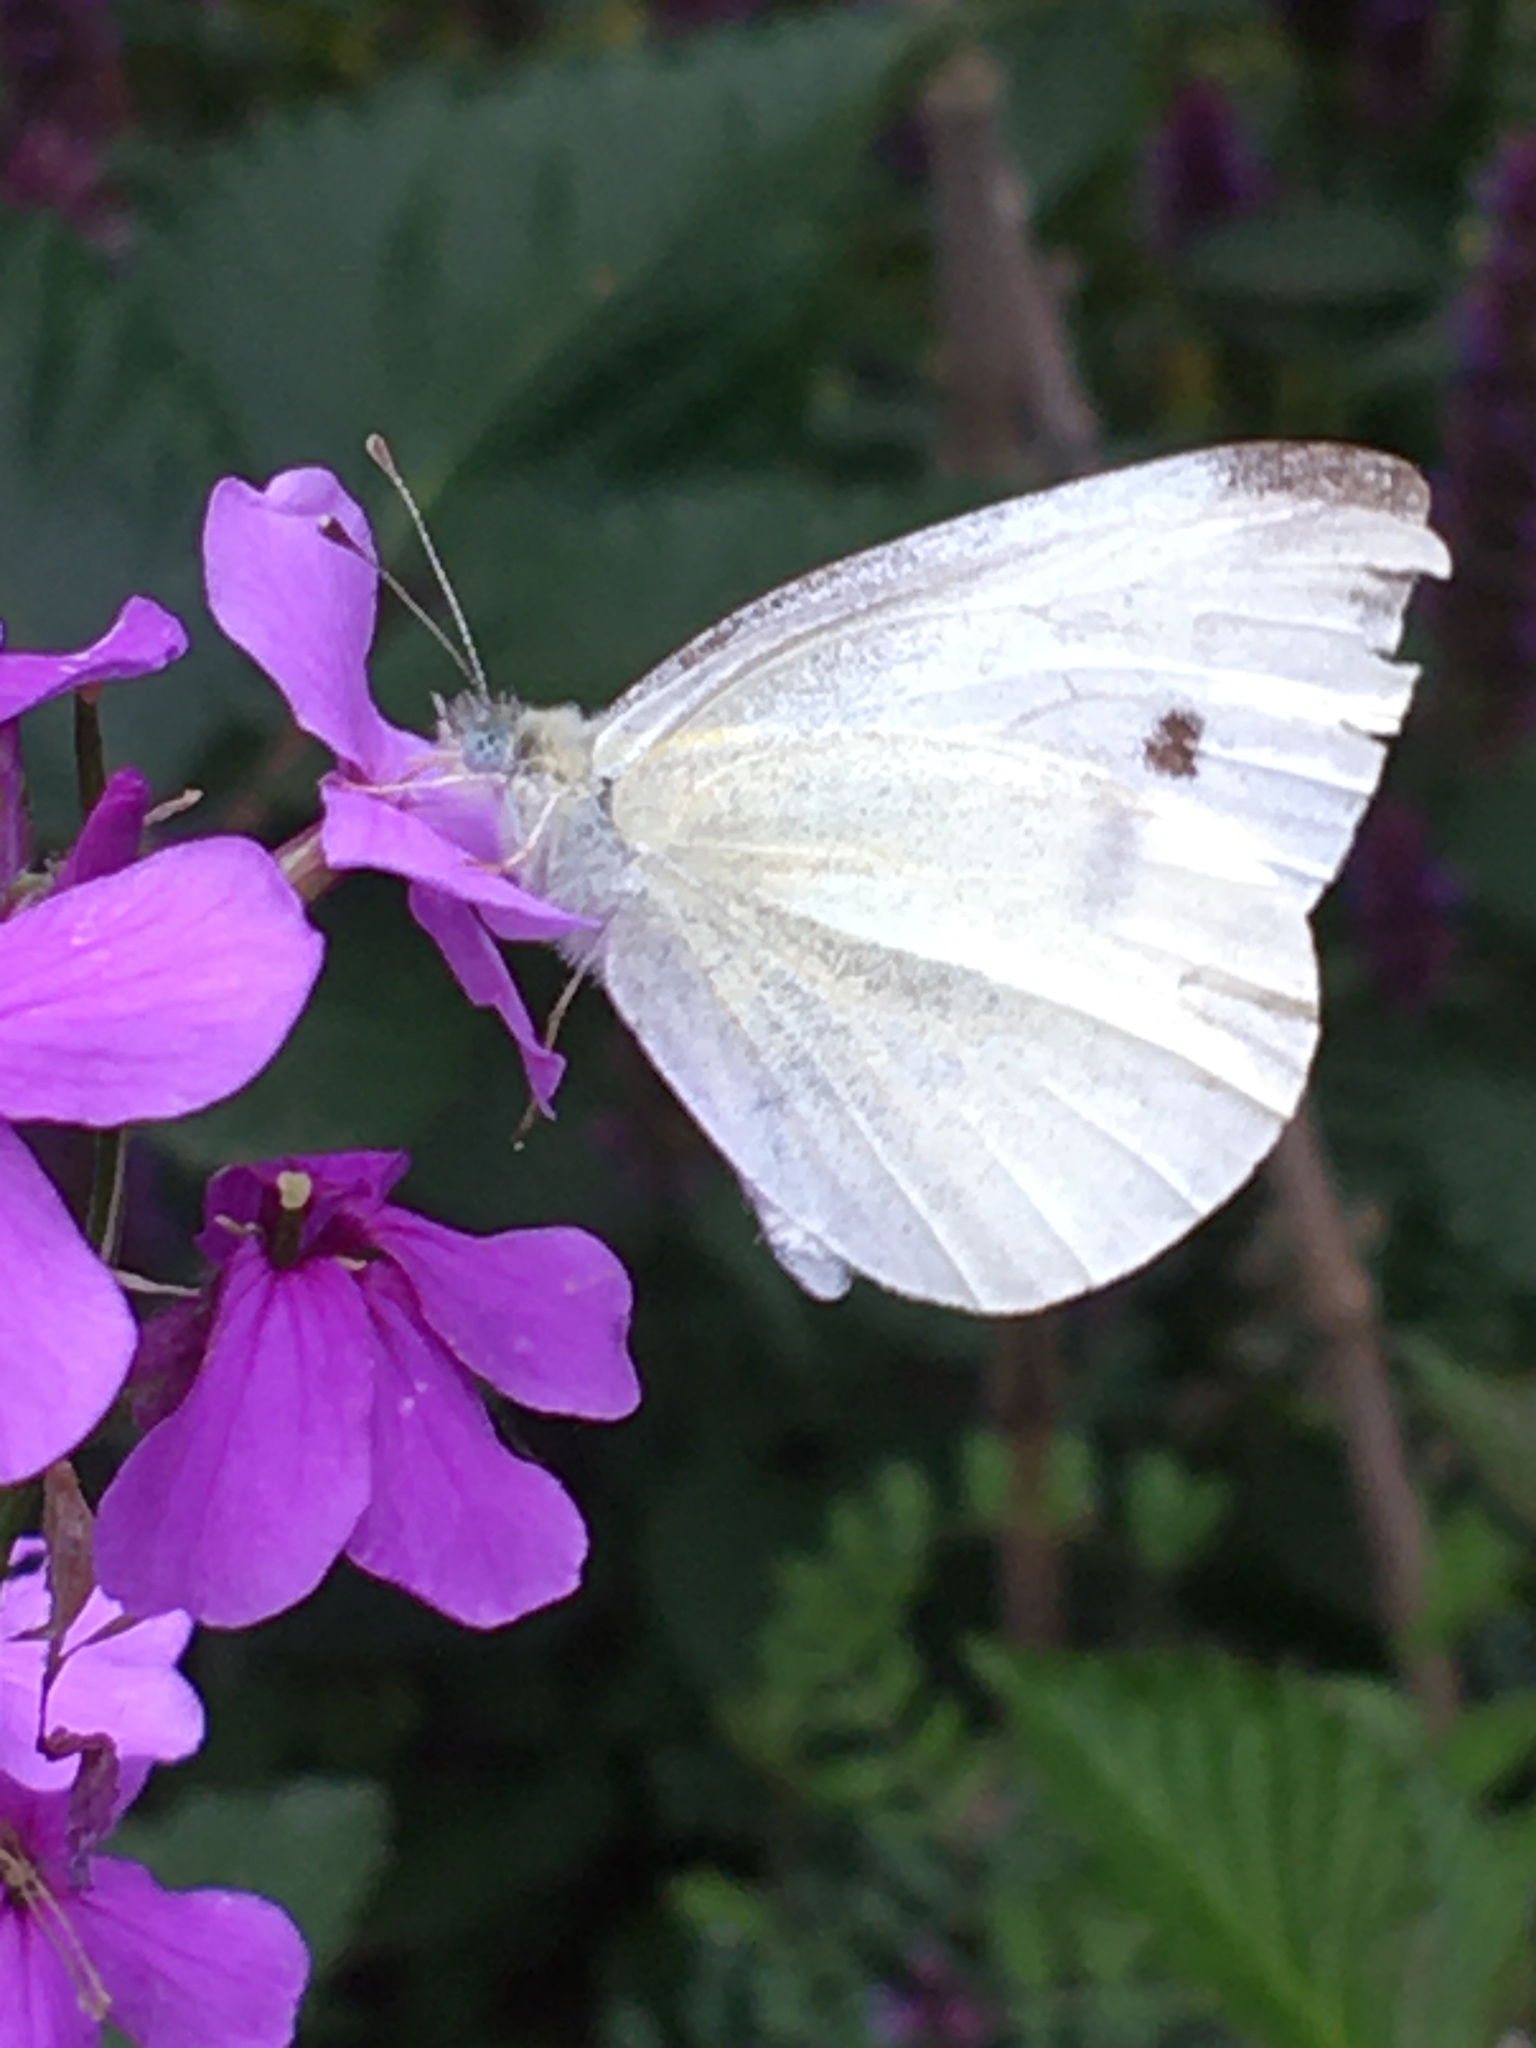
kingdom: Animalia
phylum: Arthropoda
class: Insecta
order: Lepidoptera
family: Pieridae
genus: Pieris
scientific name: Pieris rapae
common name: Small white
